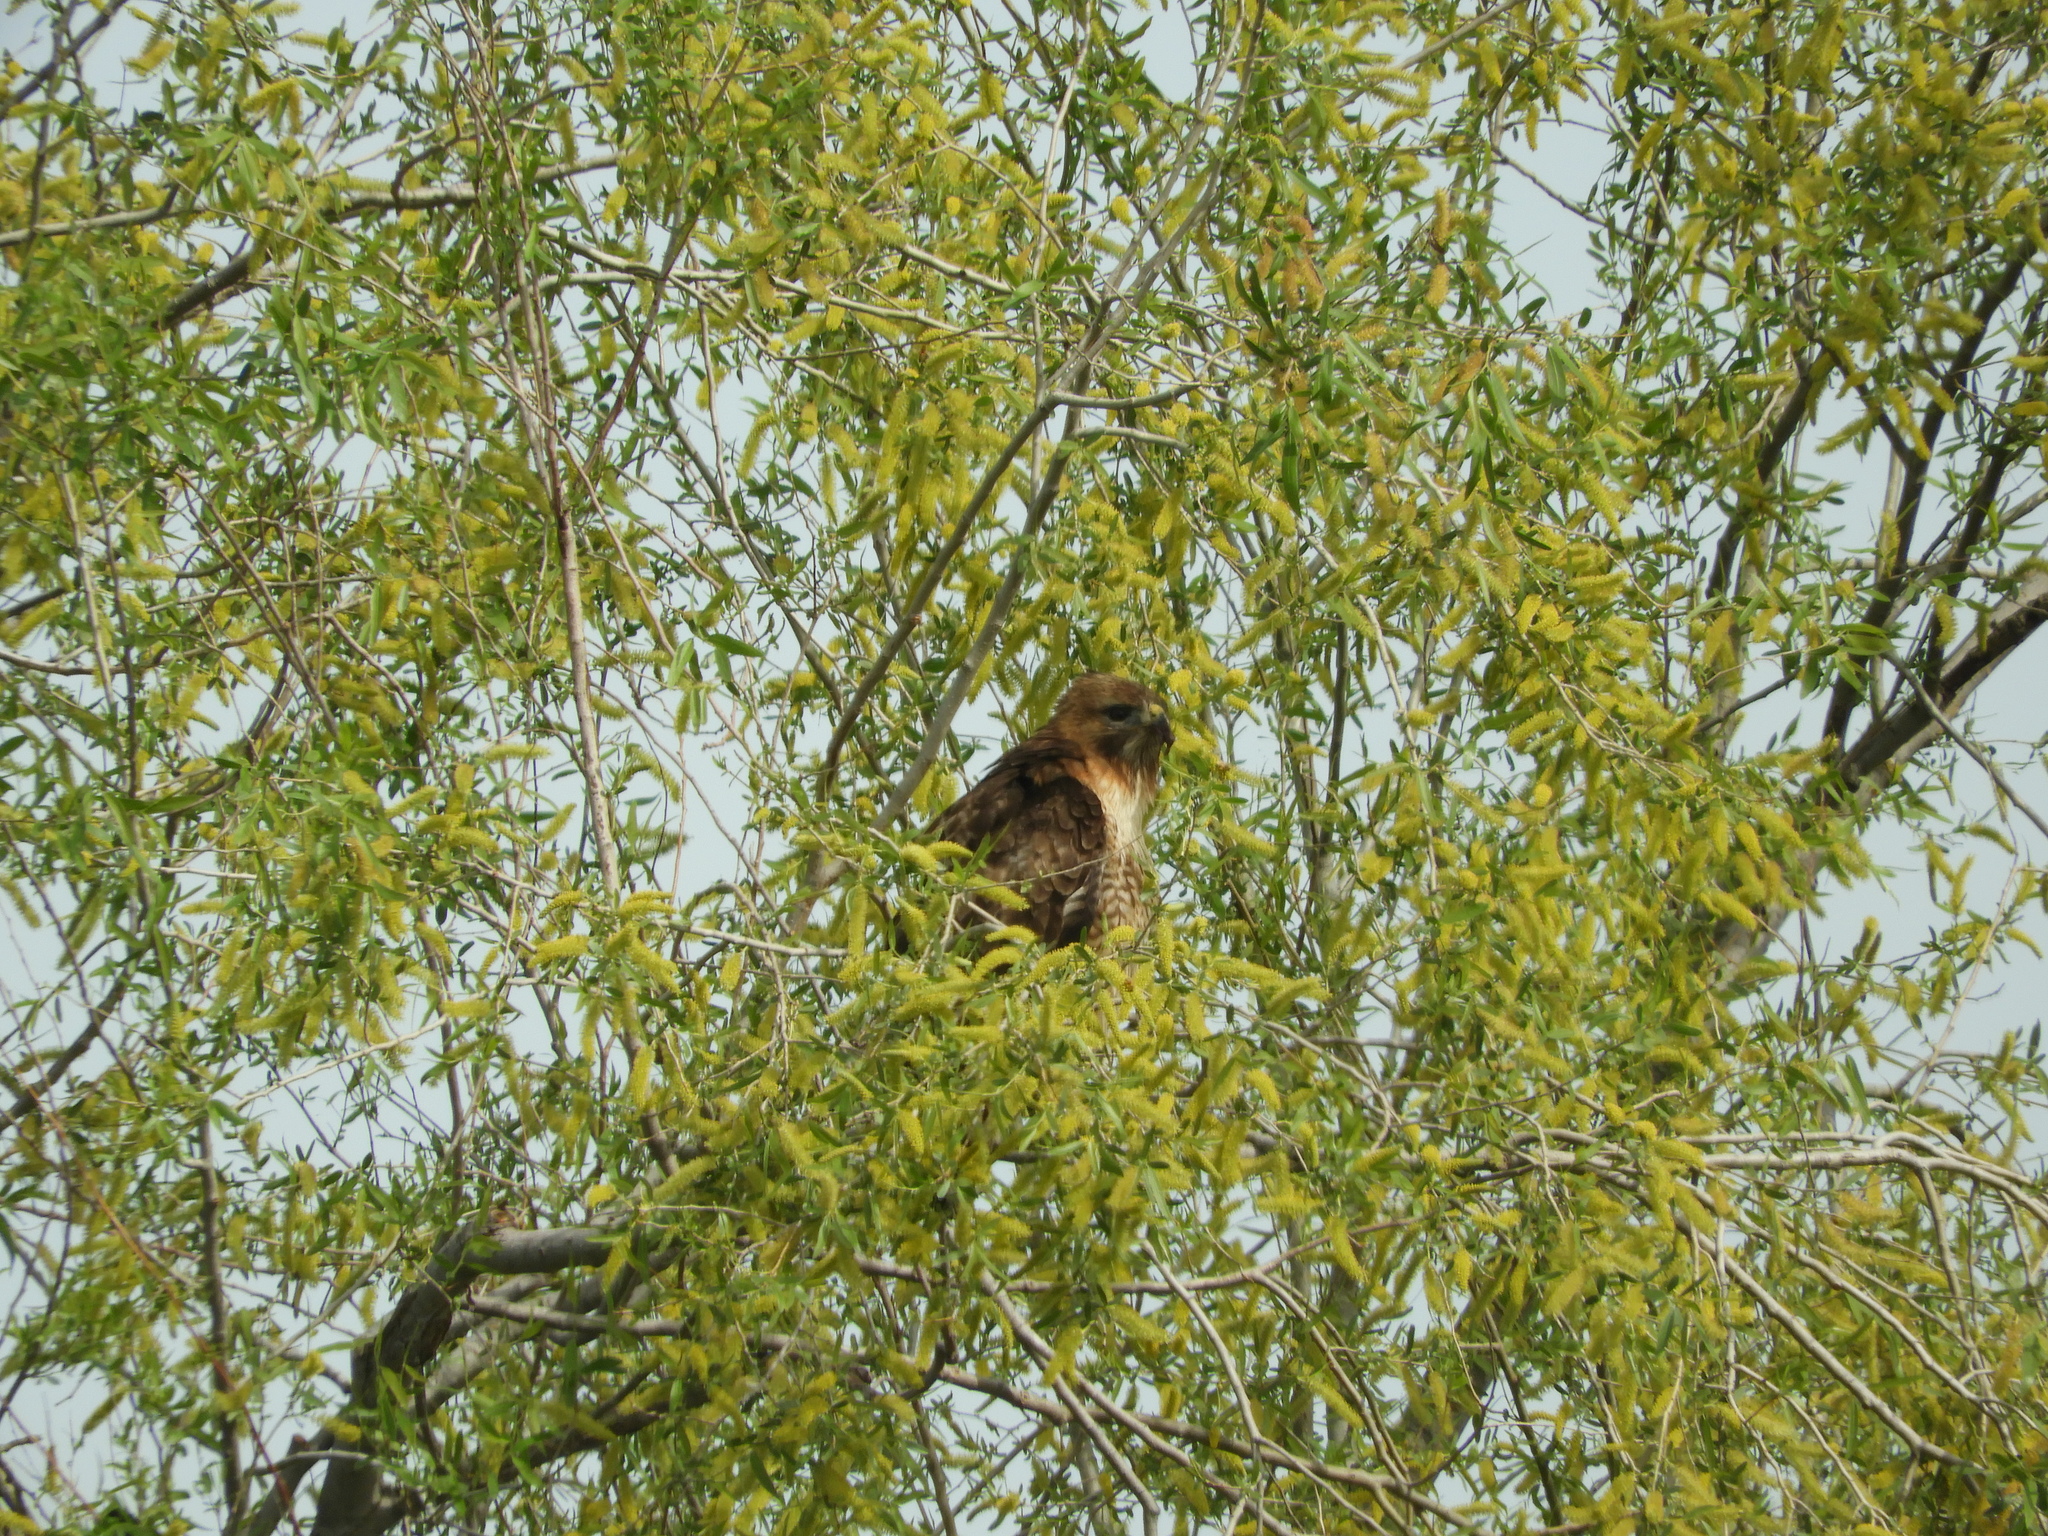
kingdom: Animalia
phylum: Chordata
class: Aves
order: Accipitriformes
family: Accipitridae
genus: Buteo
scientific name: Buteo jamaicensis
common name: Red-tailed hawk
